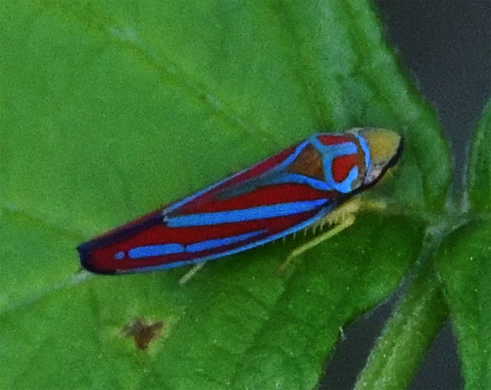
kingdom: Animalia
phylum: Arthropoda
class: Insecta
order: Hemiptera
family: Cicadellidae
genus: Graphocephala
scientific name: Graphocephala coccinea
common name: Candy-striped leafhopper
